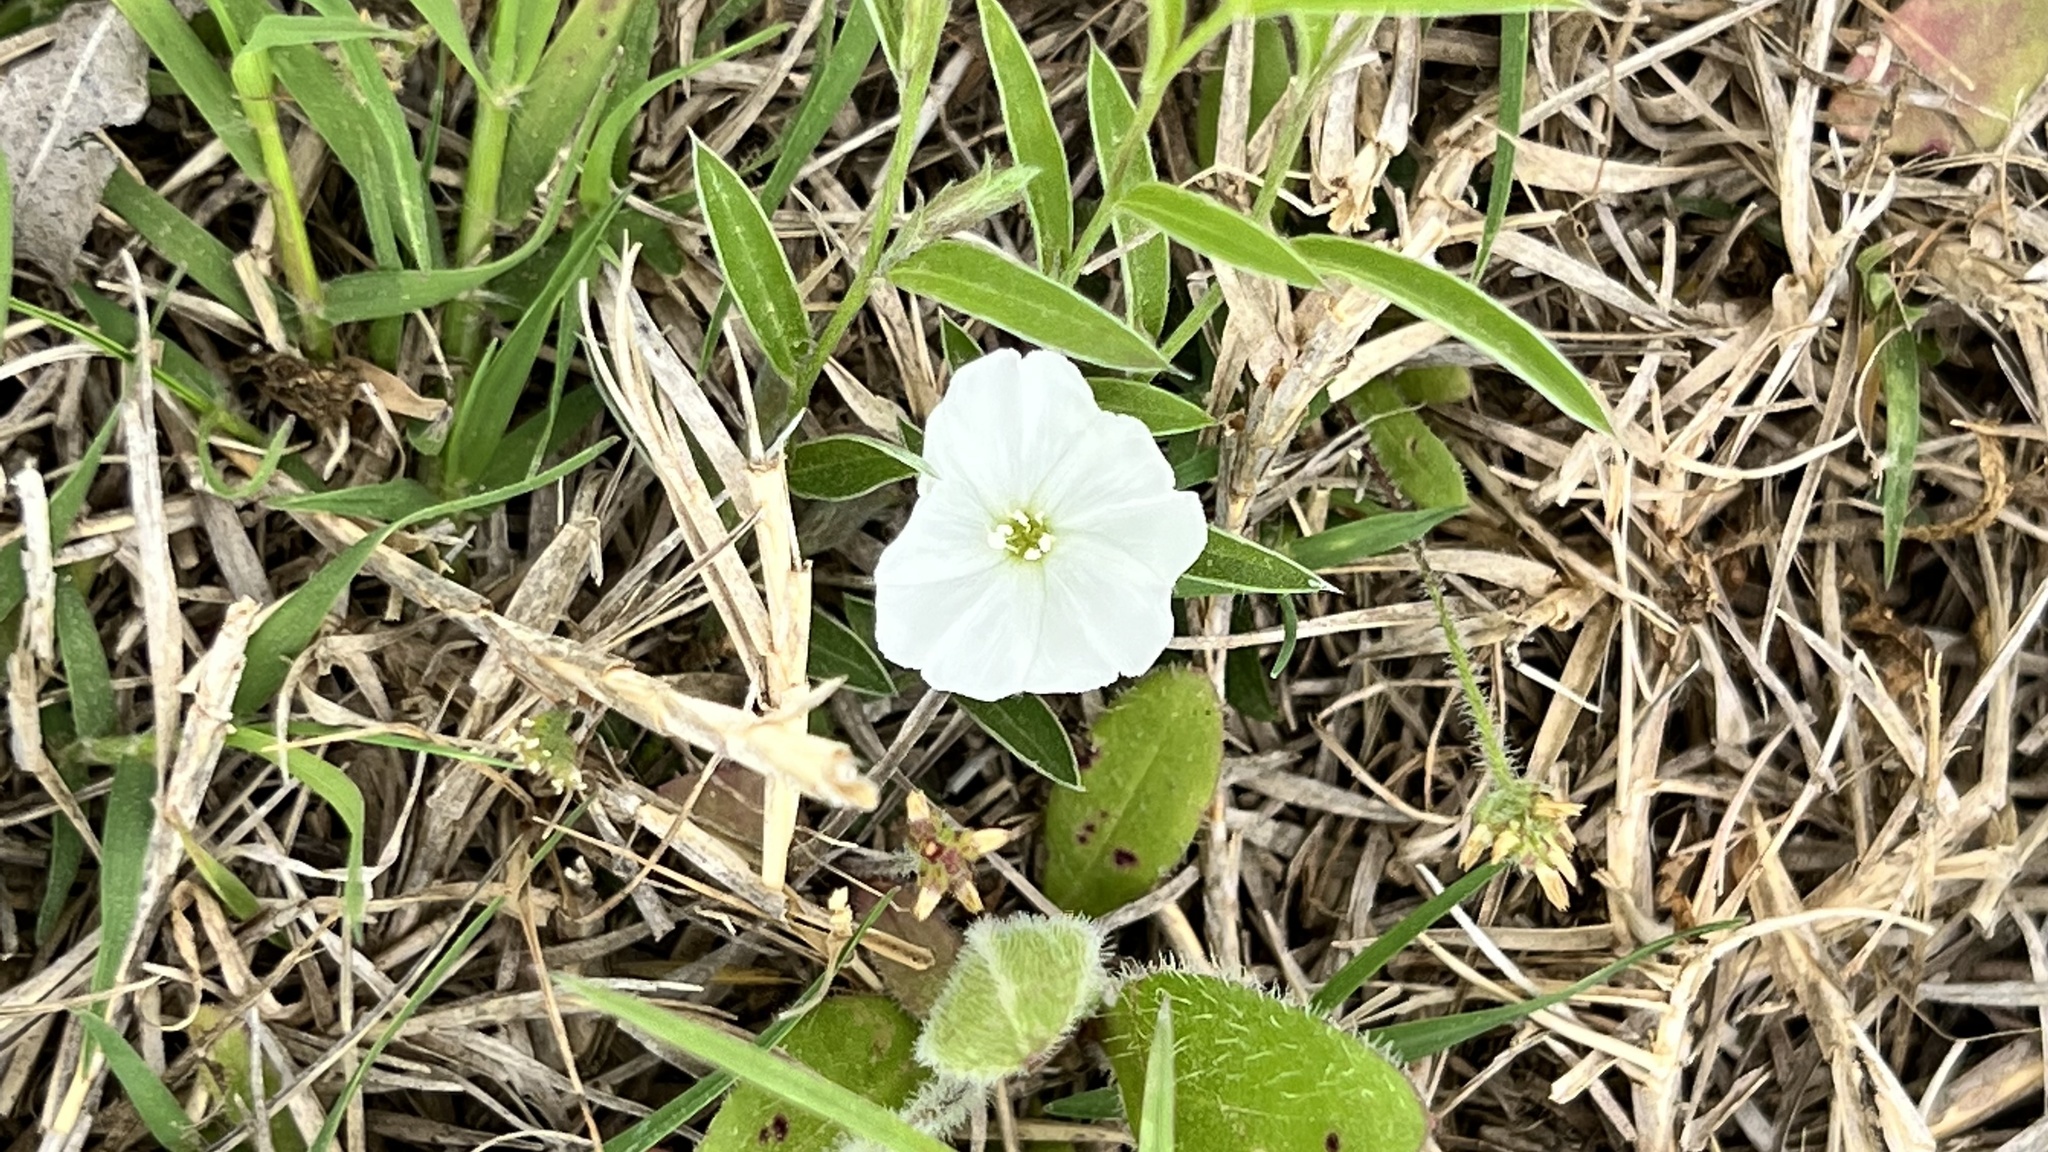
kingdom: Plantae
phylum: Tracheophyta
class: Magnoliopsida
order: Solanales
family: Convolvulaceae
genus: Evolvulus
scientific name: Evolvulus sericeus
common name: Blue dots
